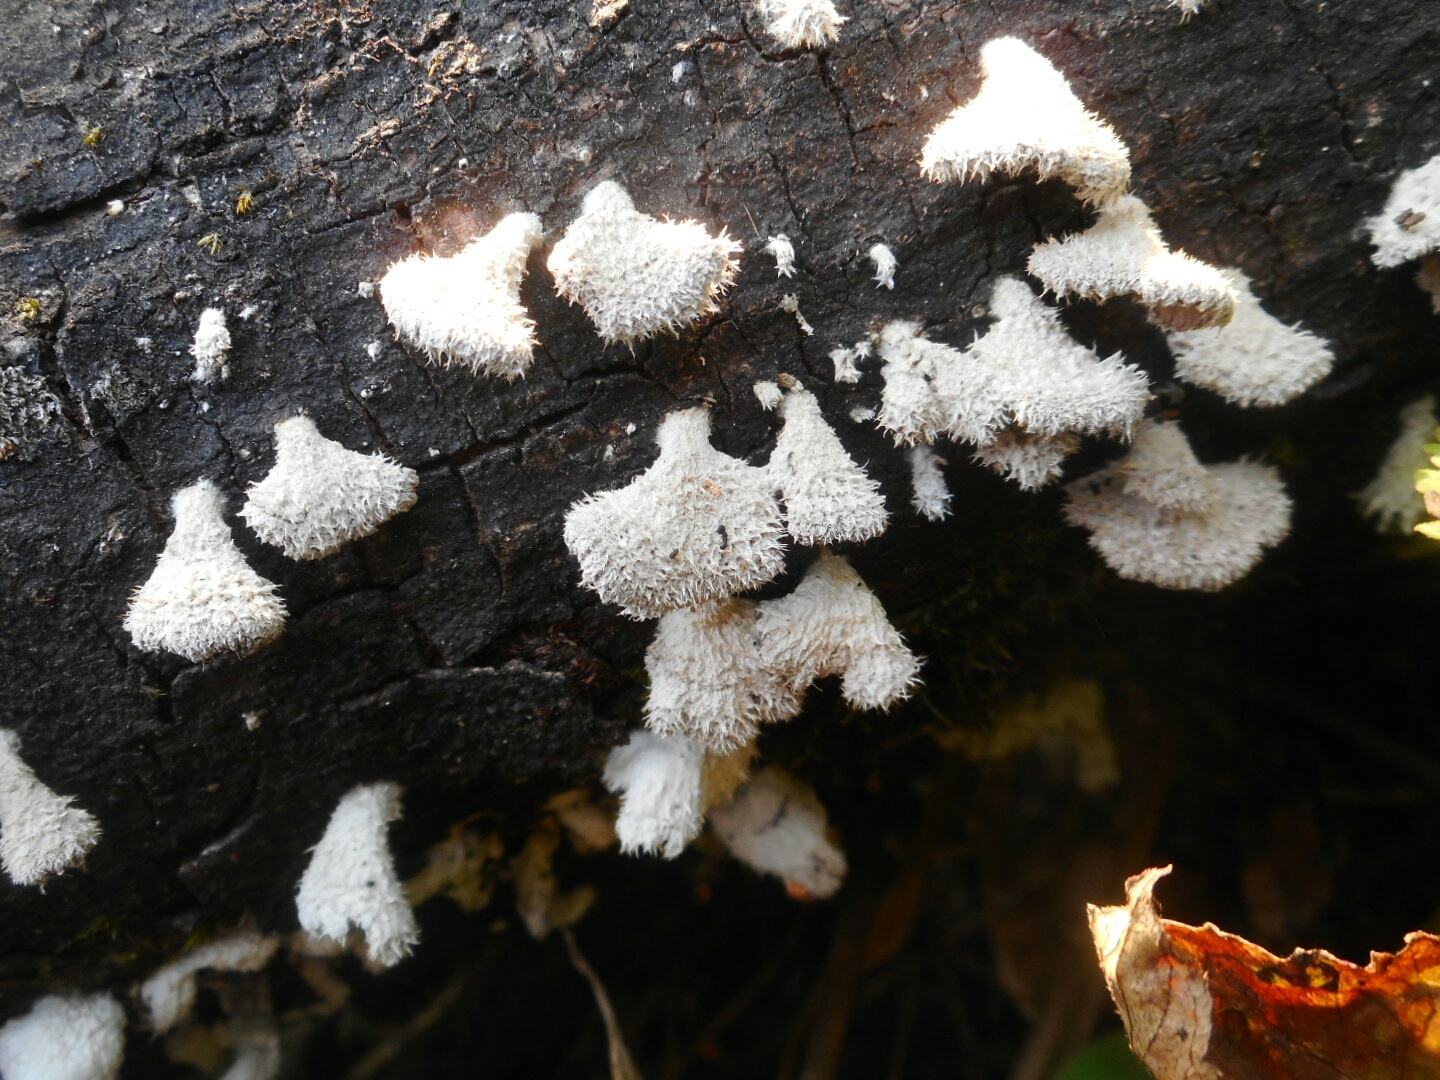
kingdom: Fungi
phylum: Basidiomycota
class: Agaricomycetes
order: Agaricales
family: Schizophyllaceae
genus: Schizophyllum
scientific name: Schizophyllum commune
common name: Common porecrust
